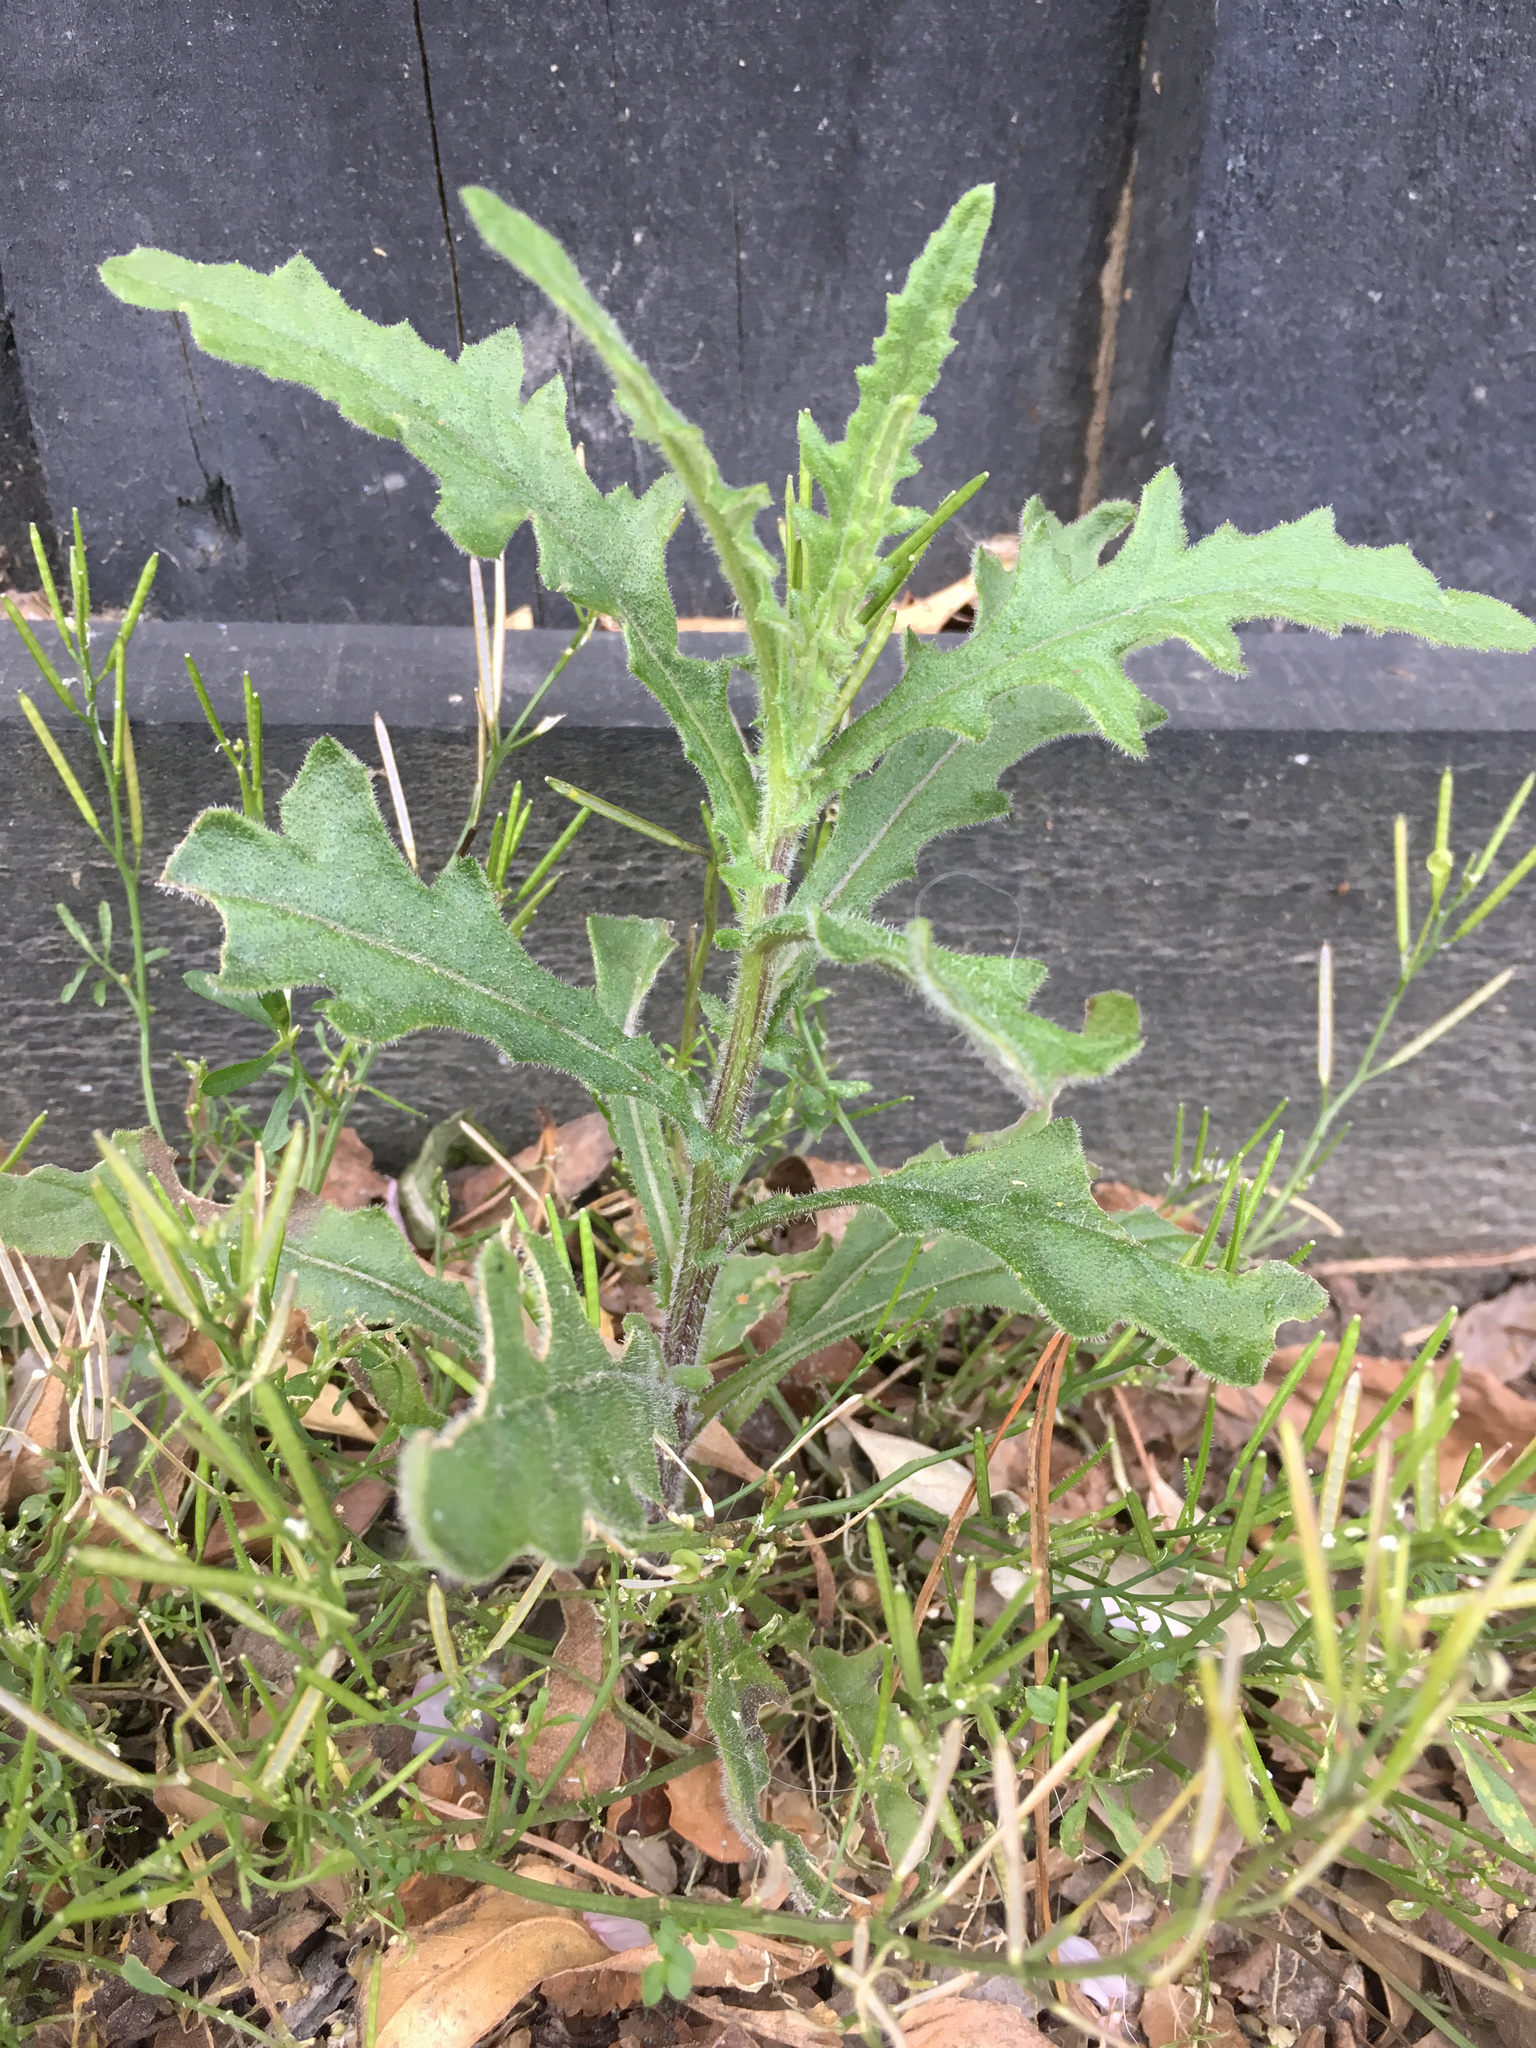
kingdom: Plantae
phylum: Tracheophyta
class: Magnoliopsida
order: Asterales
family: Asteraceae
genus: Senecio
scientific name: Senecio hispidulus
